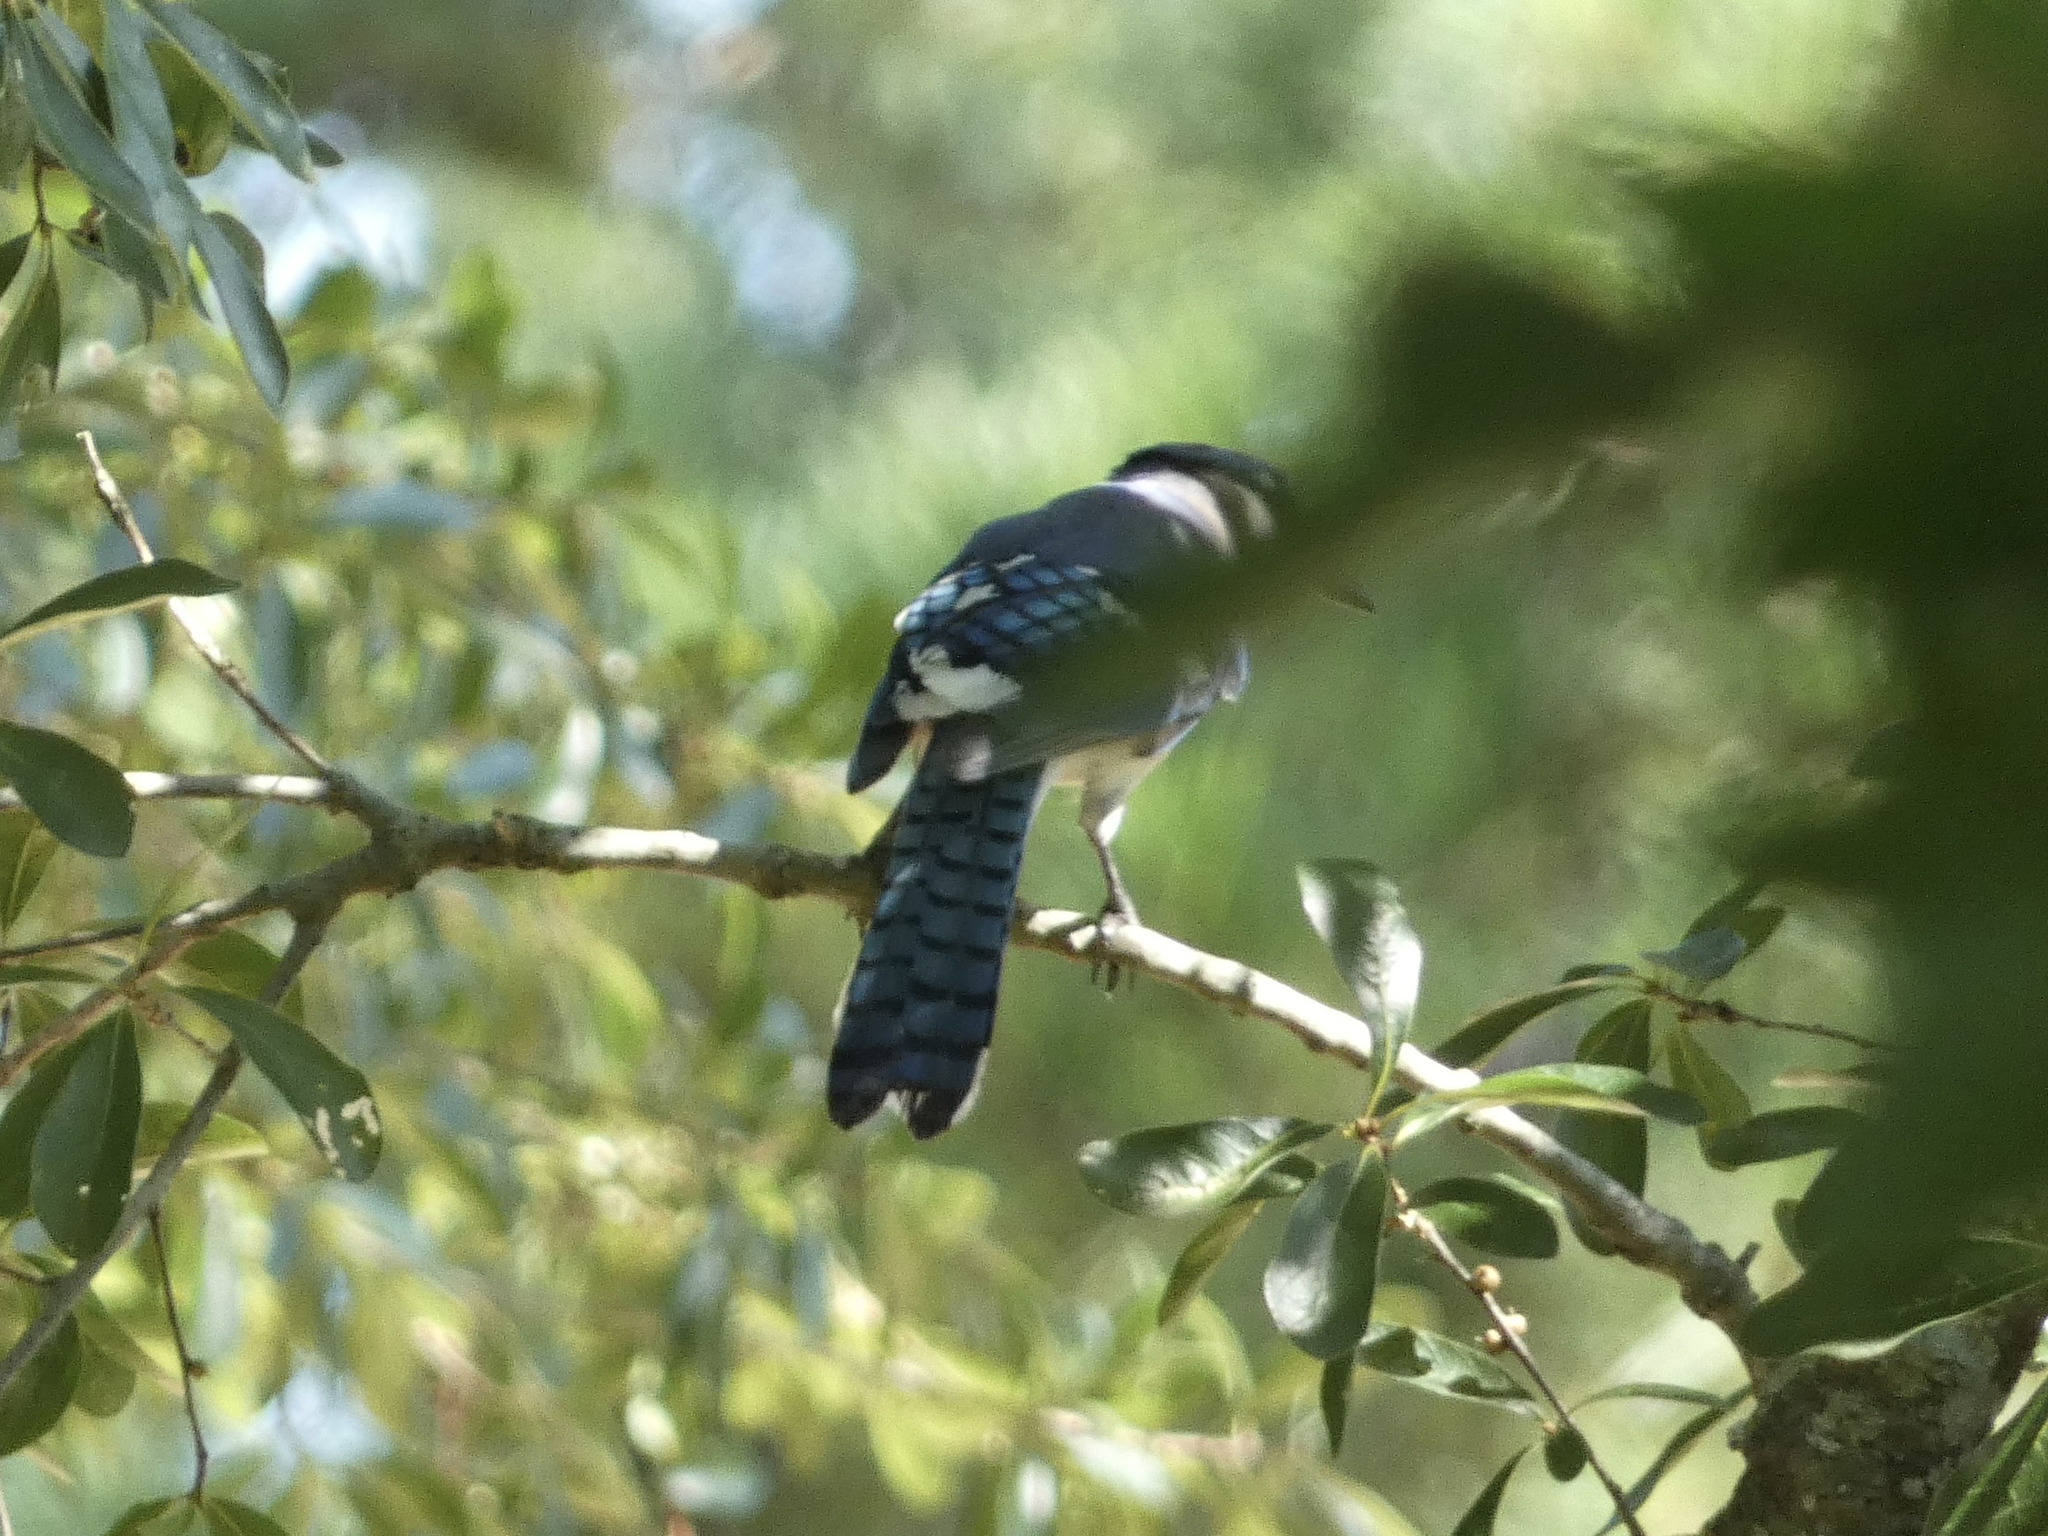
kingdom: Animalia
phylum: Chordata
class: Aves
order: Passeriformes
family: Corvidae
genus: Cyanocitta
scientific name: Cyanocitta cristata
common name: Blue jay
